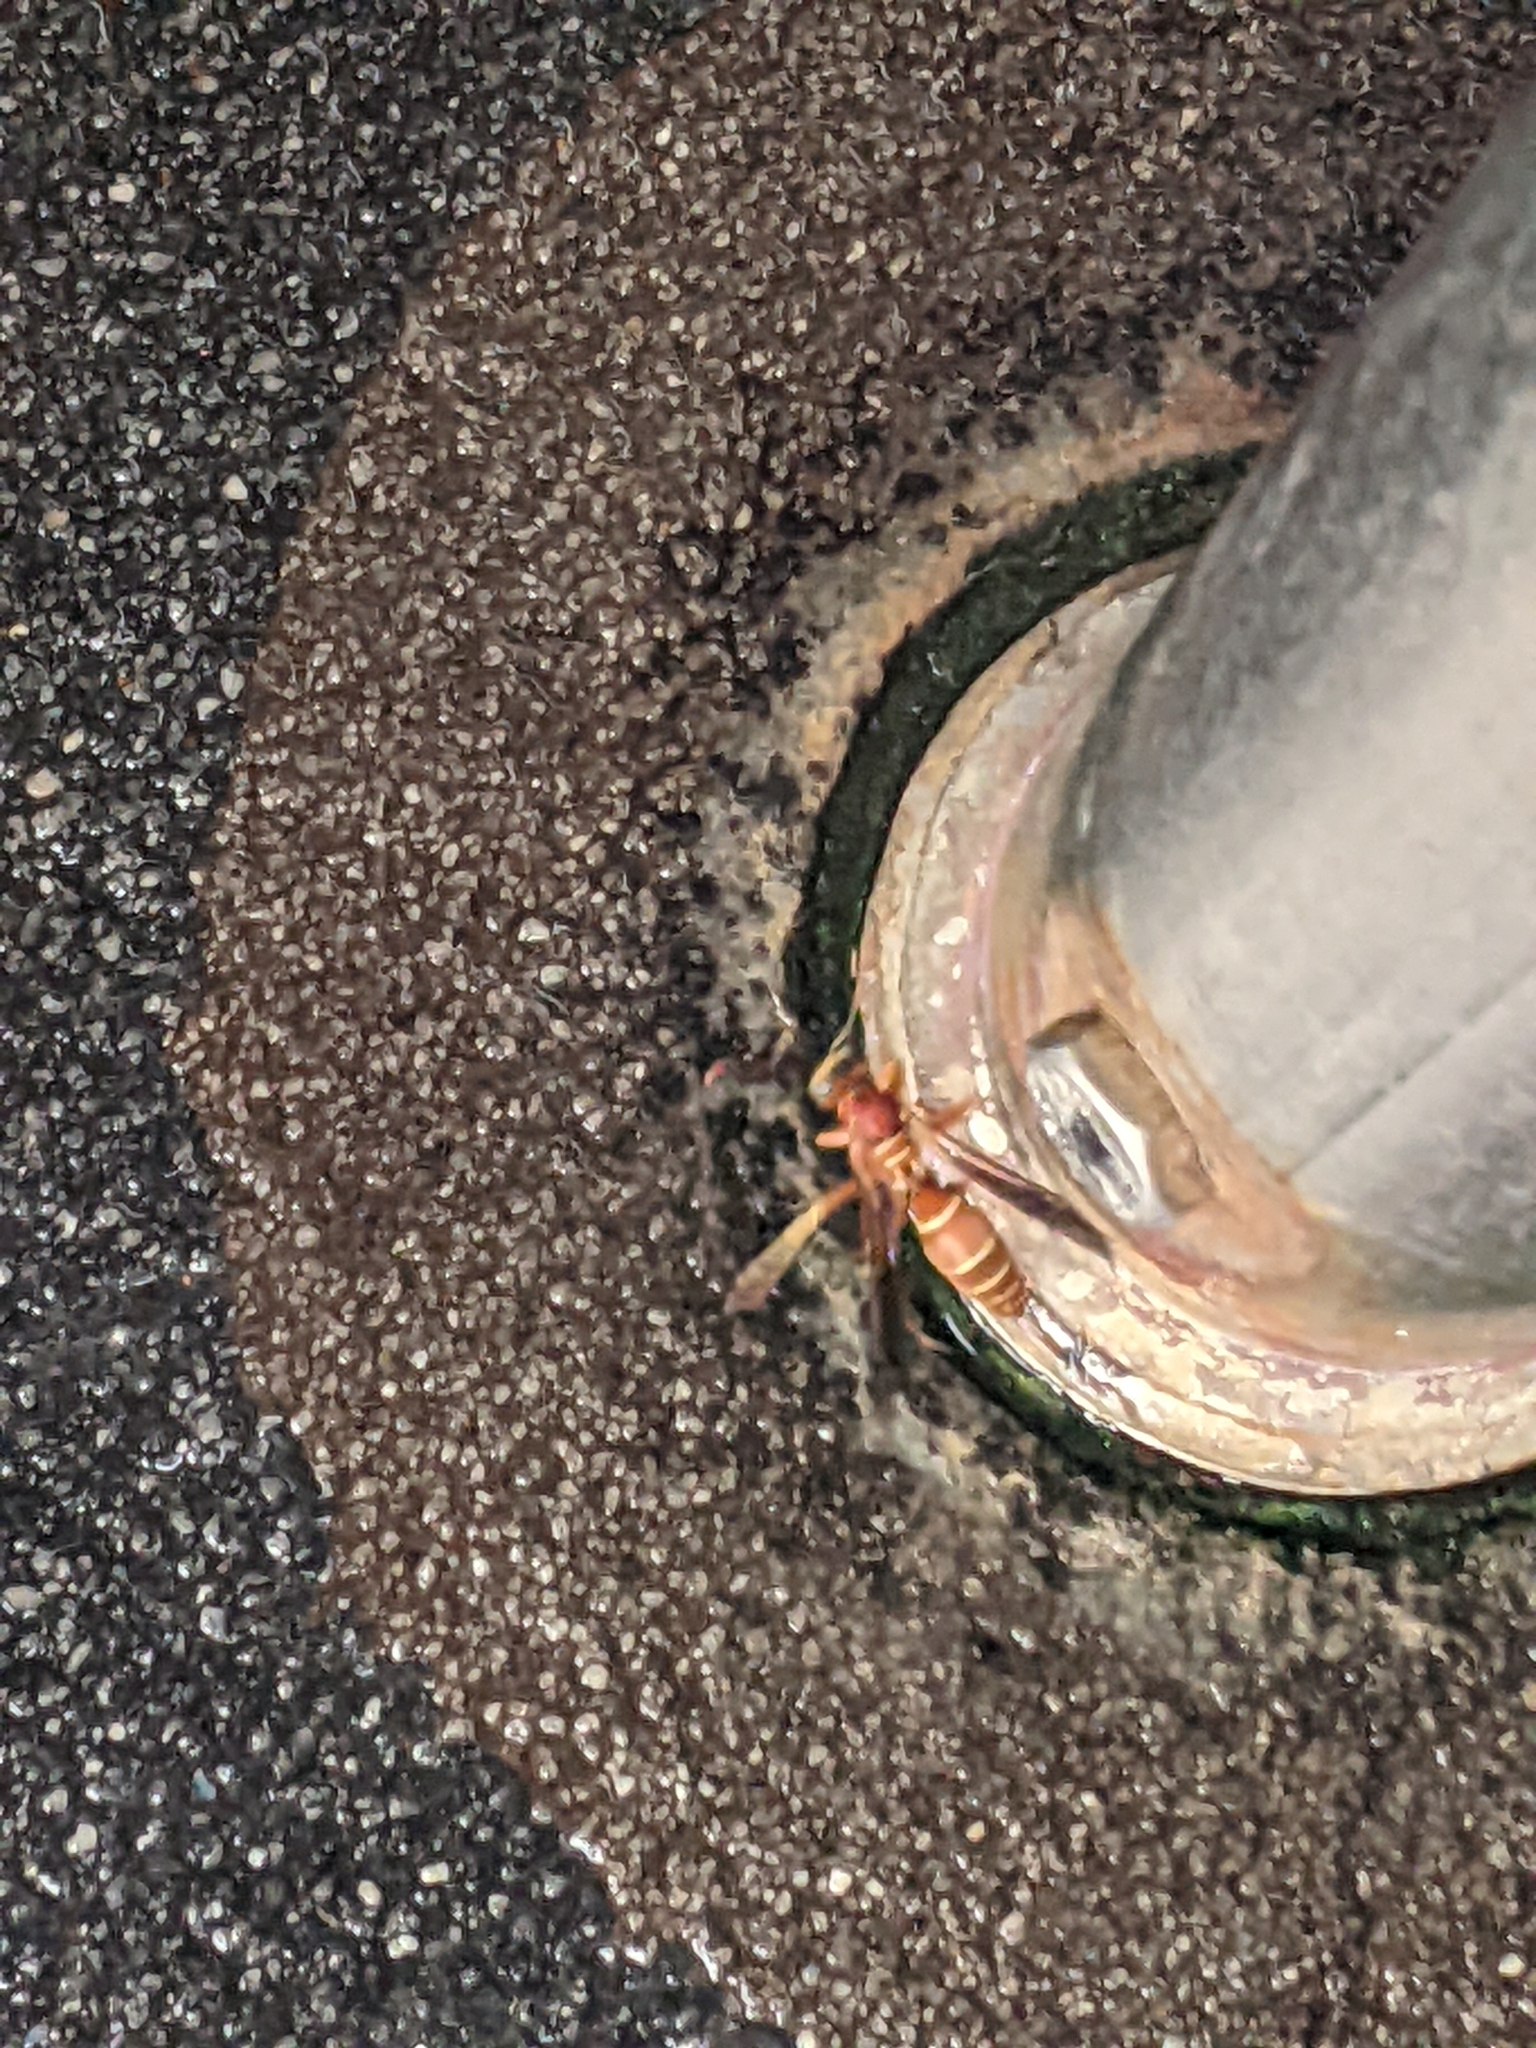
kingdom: Animalia
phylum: Arthropoda
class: Insecta
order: Hymenoptera
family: Eumenidae
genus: Polistes
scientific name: Polistes bellicosus
